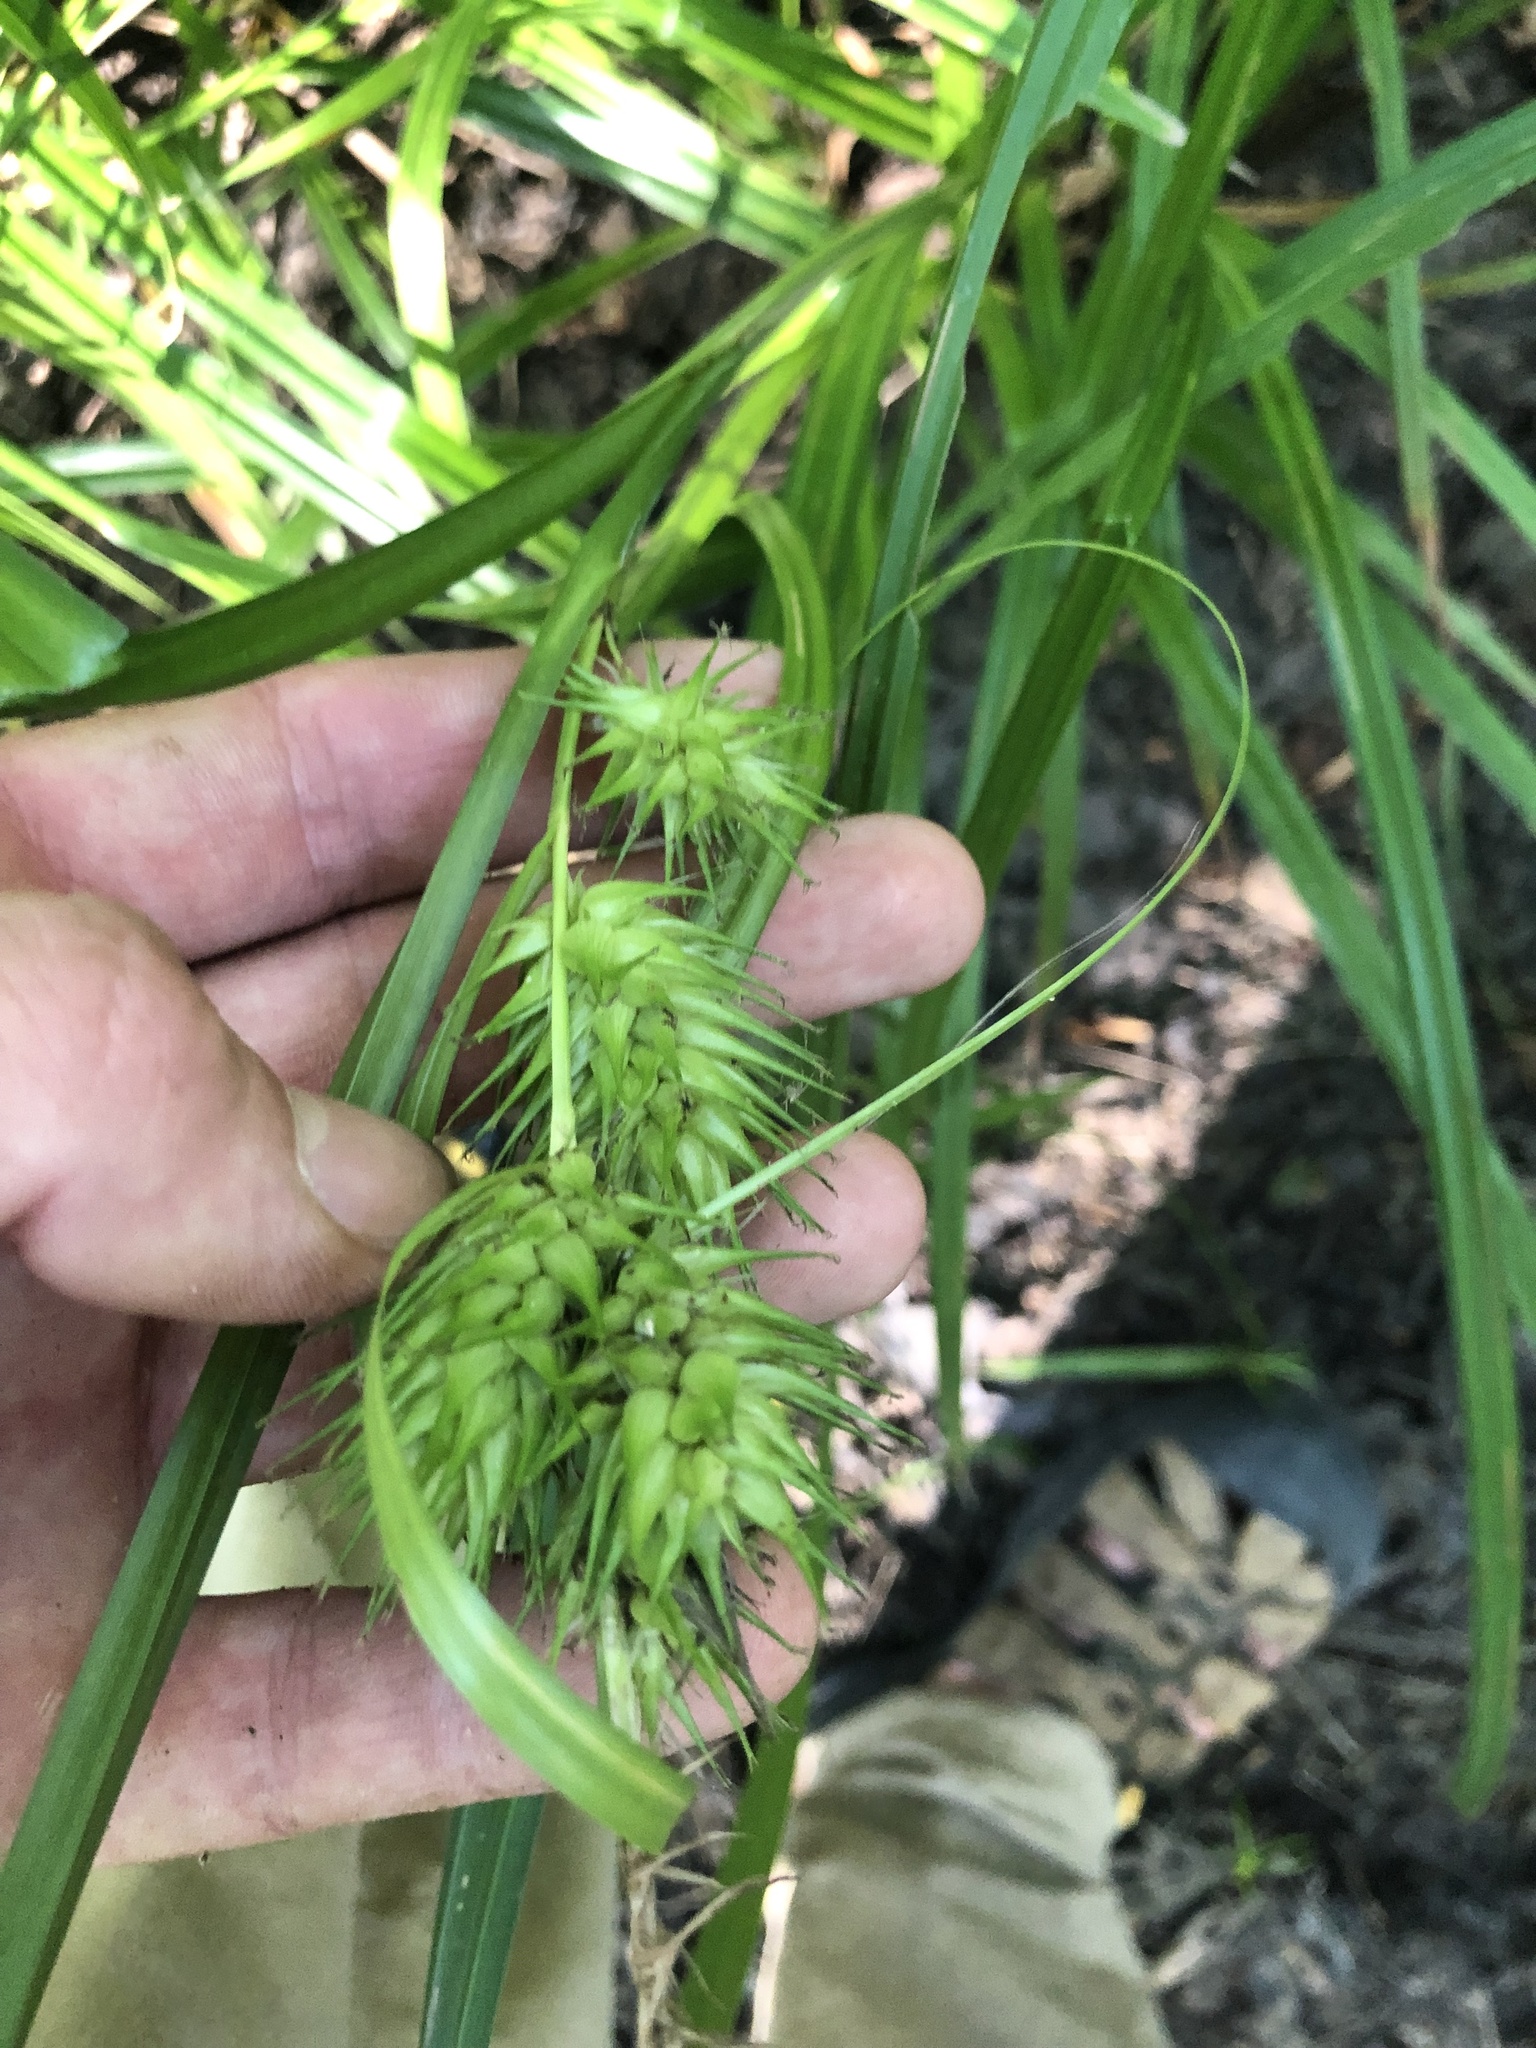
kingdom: Plantae
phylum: Tracheophyta
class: Liliopsida
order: Poales
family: Cyperaceae
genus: Carex
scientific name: Carex lupulina
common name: Hop sedge
